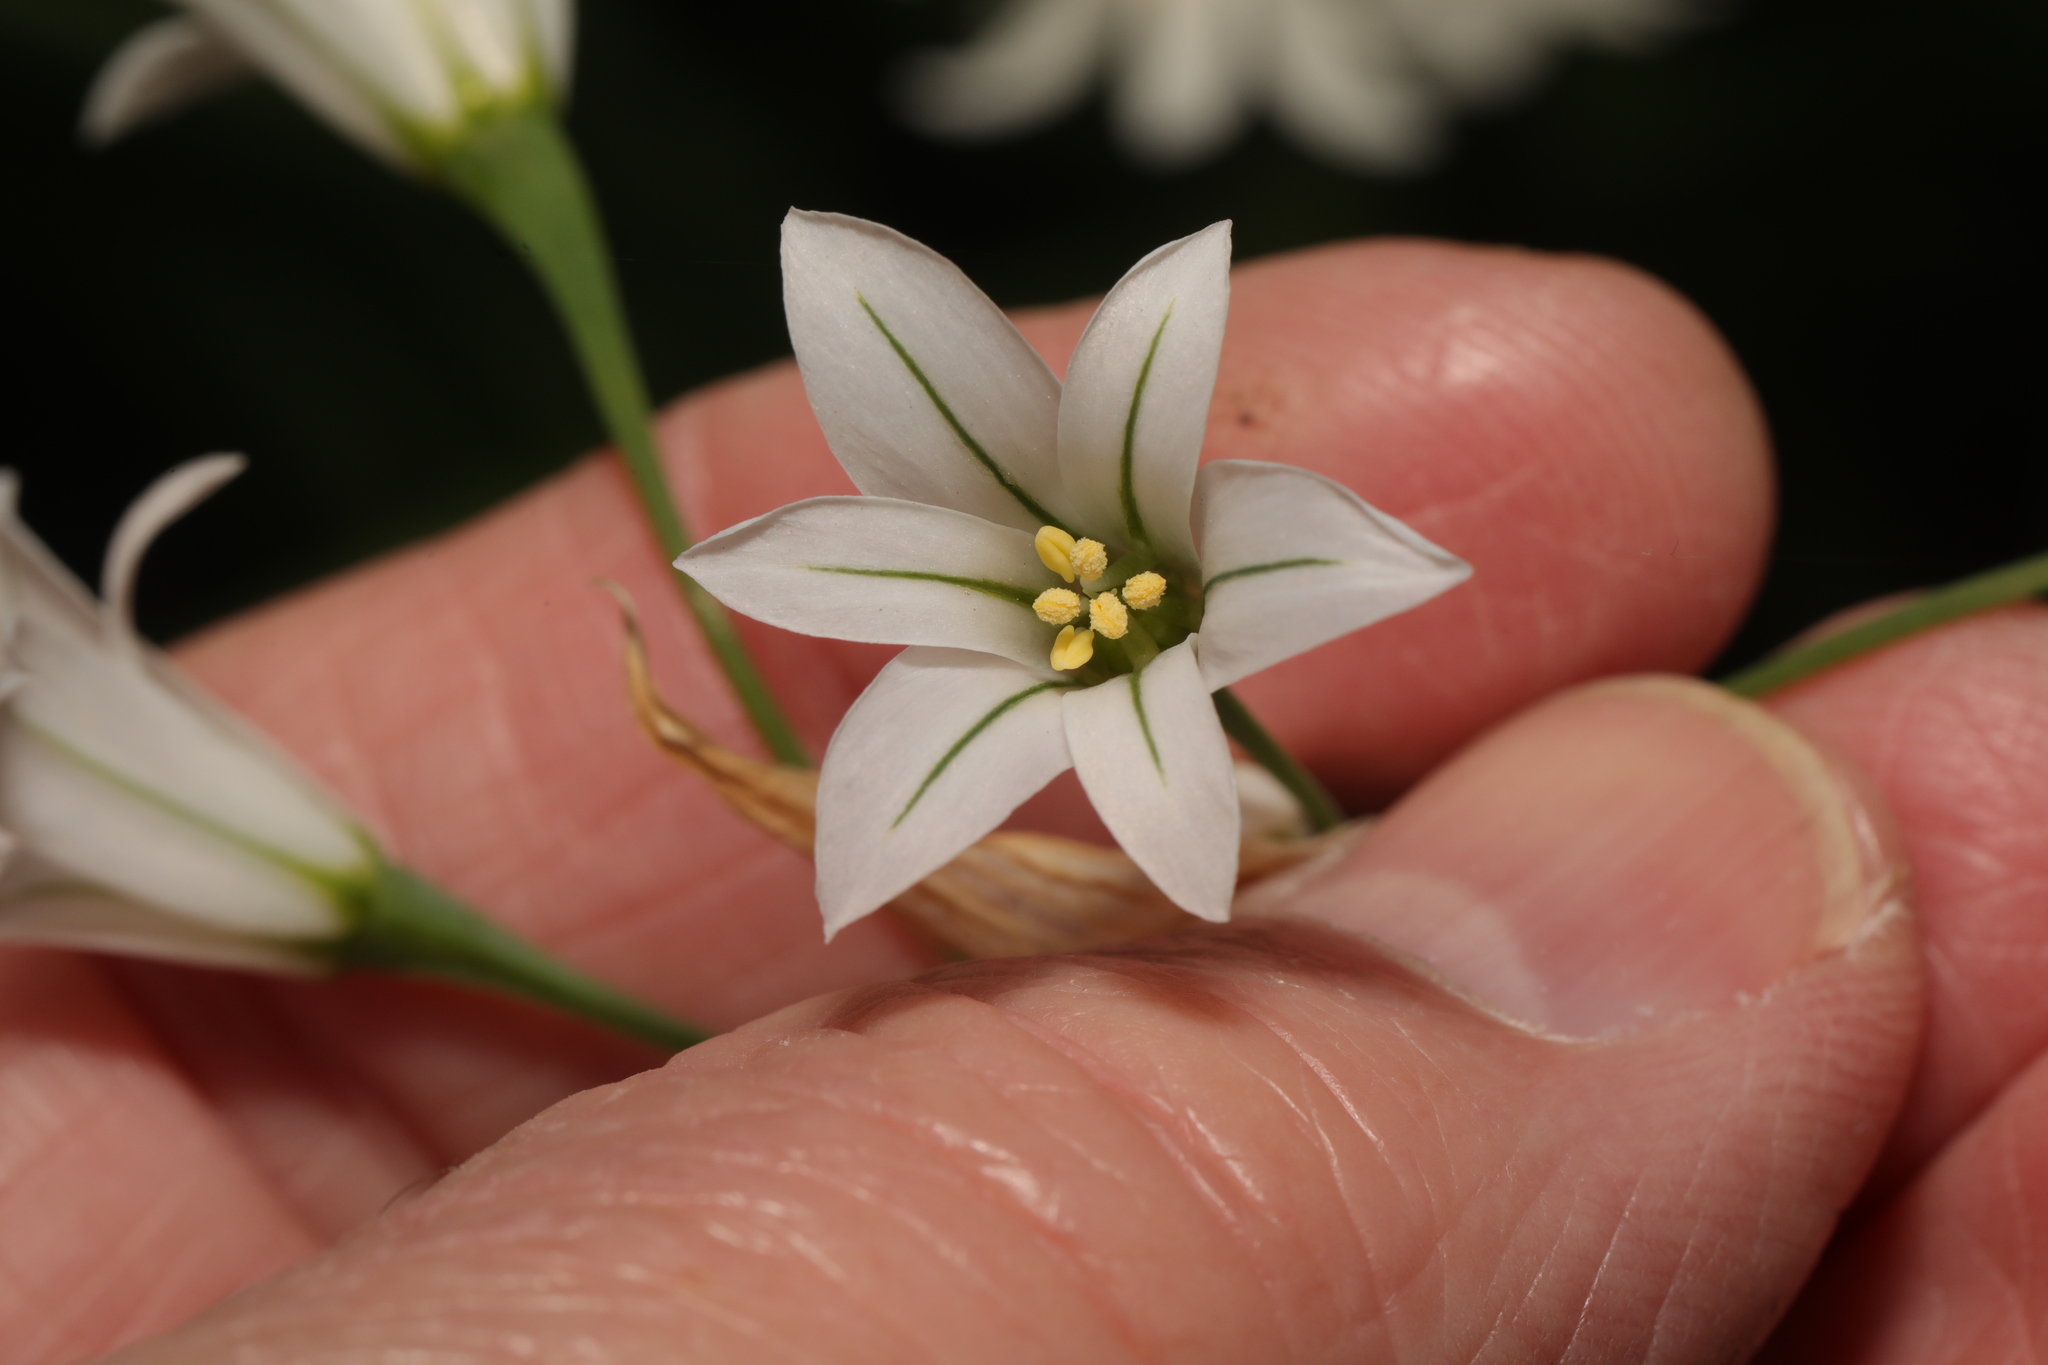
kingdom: Plantae
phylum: Tracheophyta
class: Liliopsida
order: Asparagales
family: Amaryllidaceae
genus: Allium
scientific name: Allium triquetrum
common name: Three-cornered garlic
